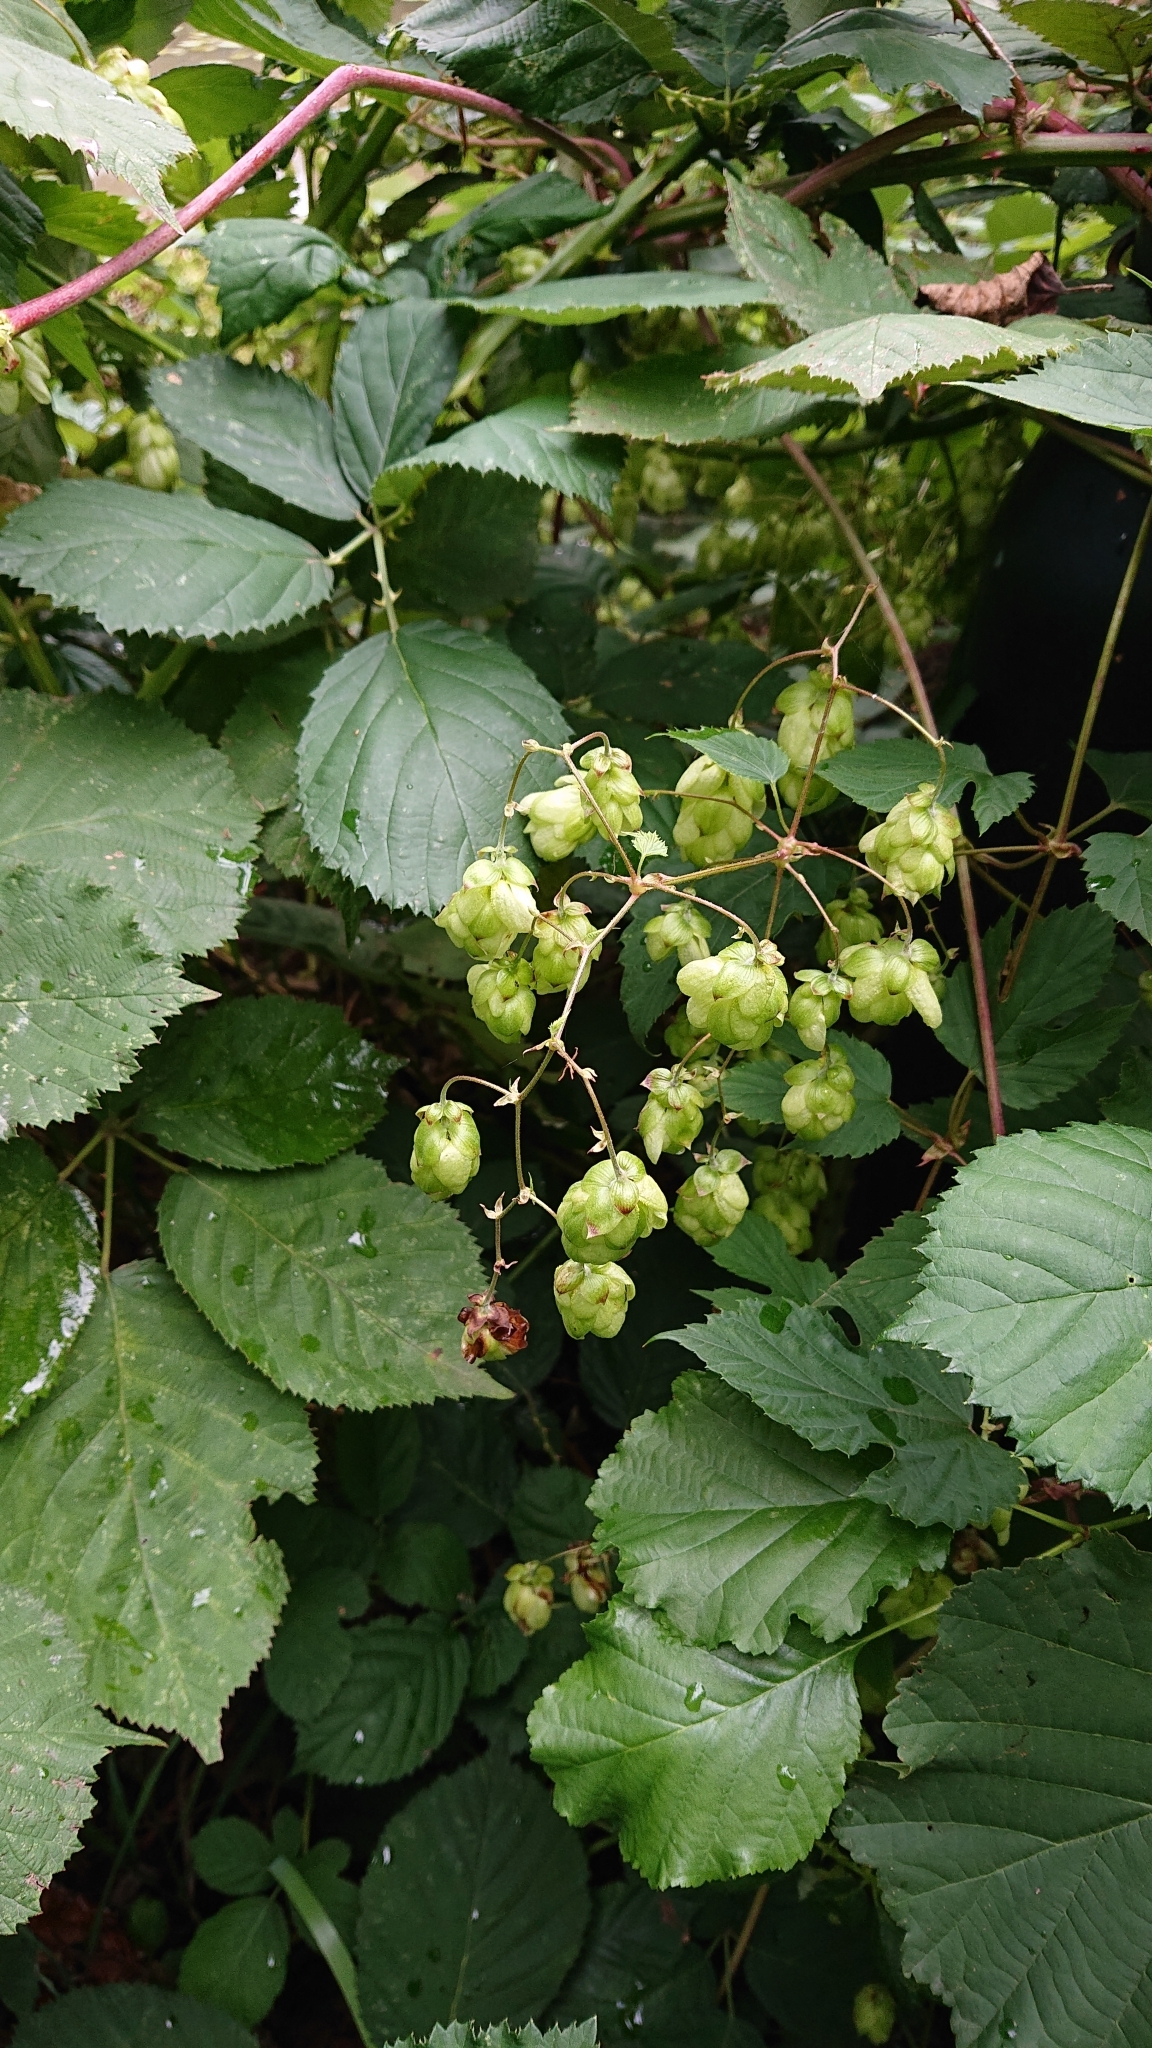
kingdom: Plantae
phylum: Tracheophyta
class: Magnoliopsida
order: Rosales
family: Cannabaceae
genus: Humulus
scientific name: Humulus lupulus
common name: Hop
